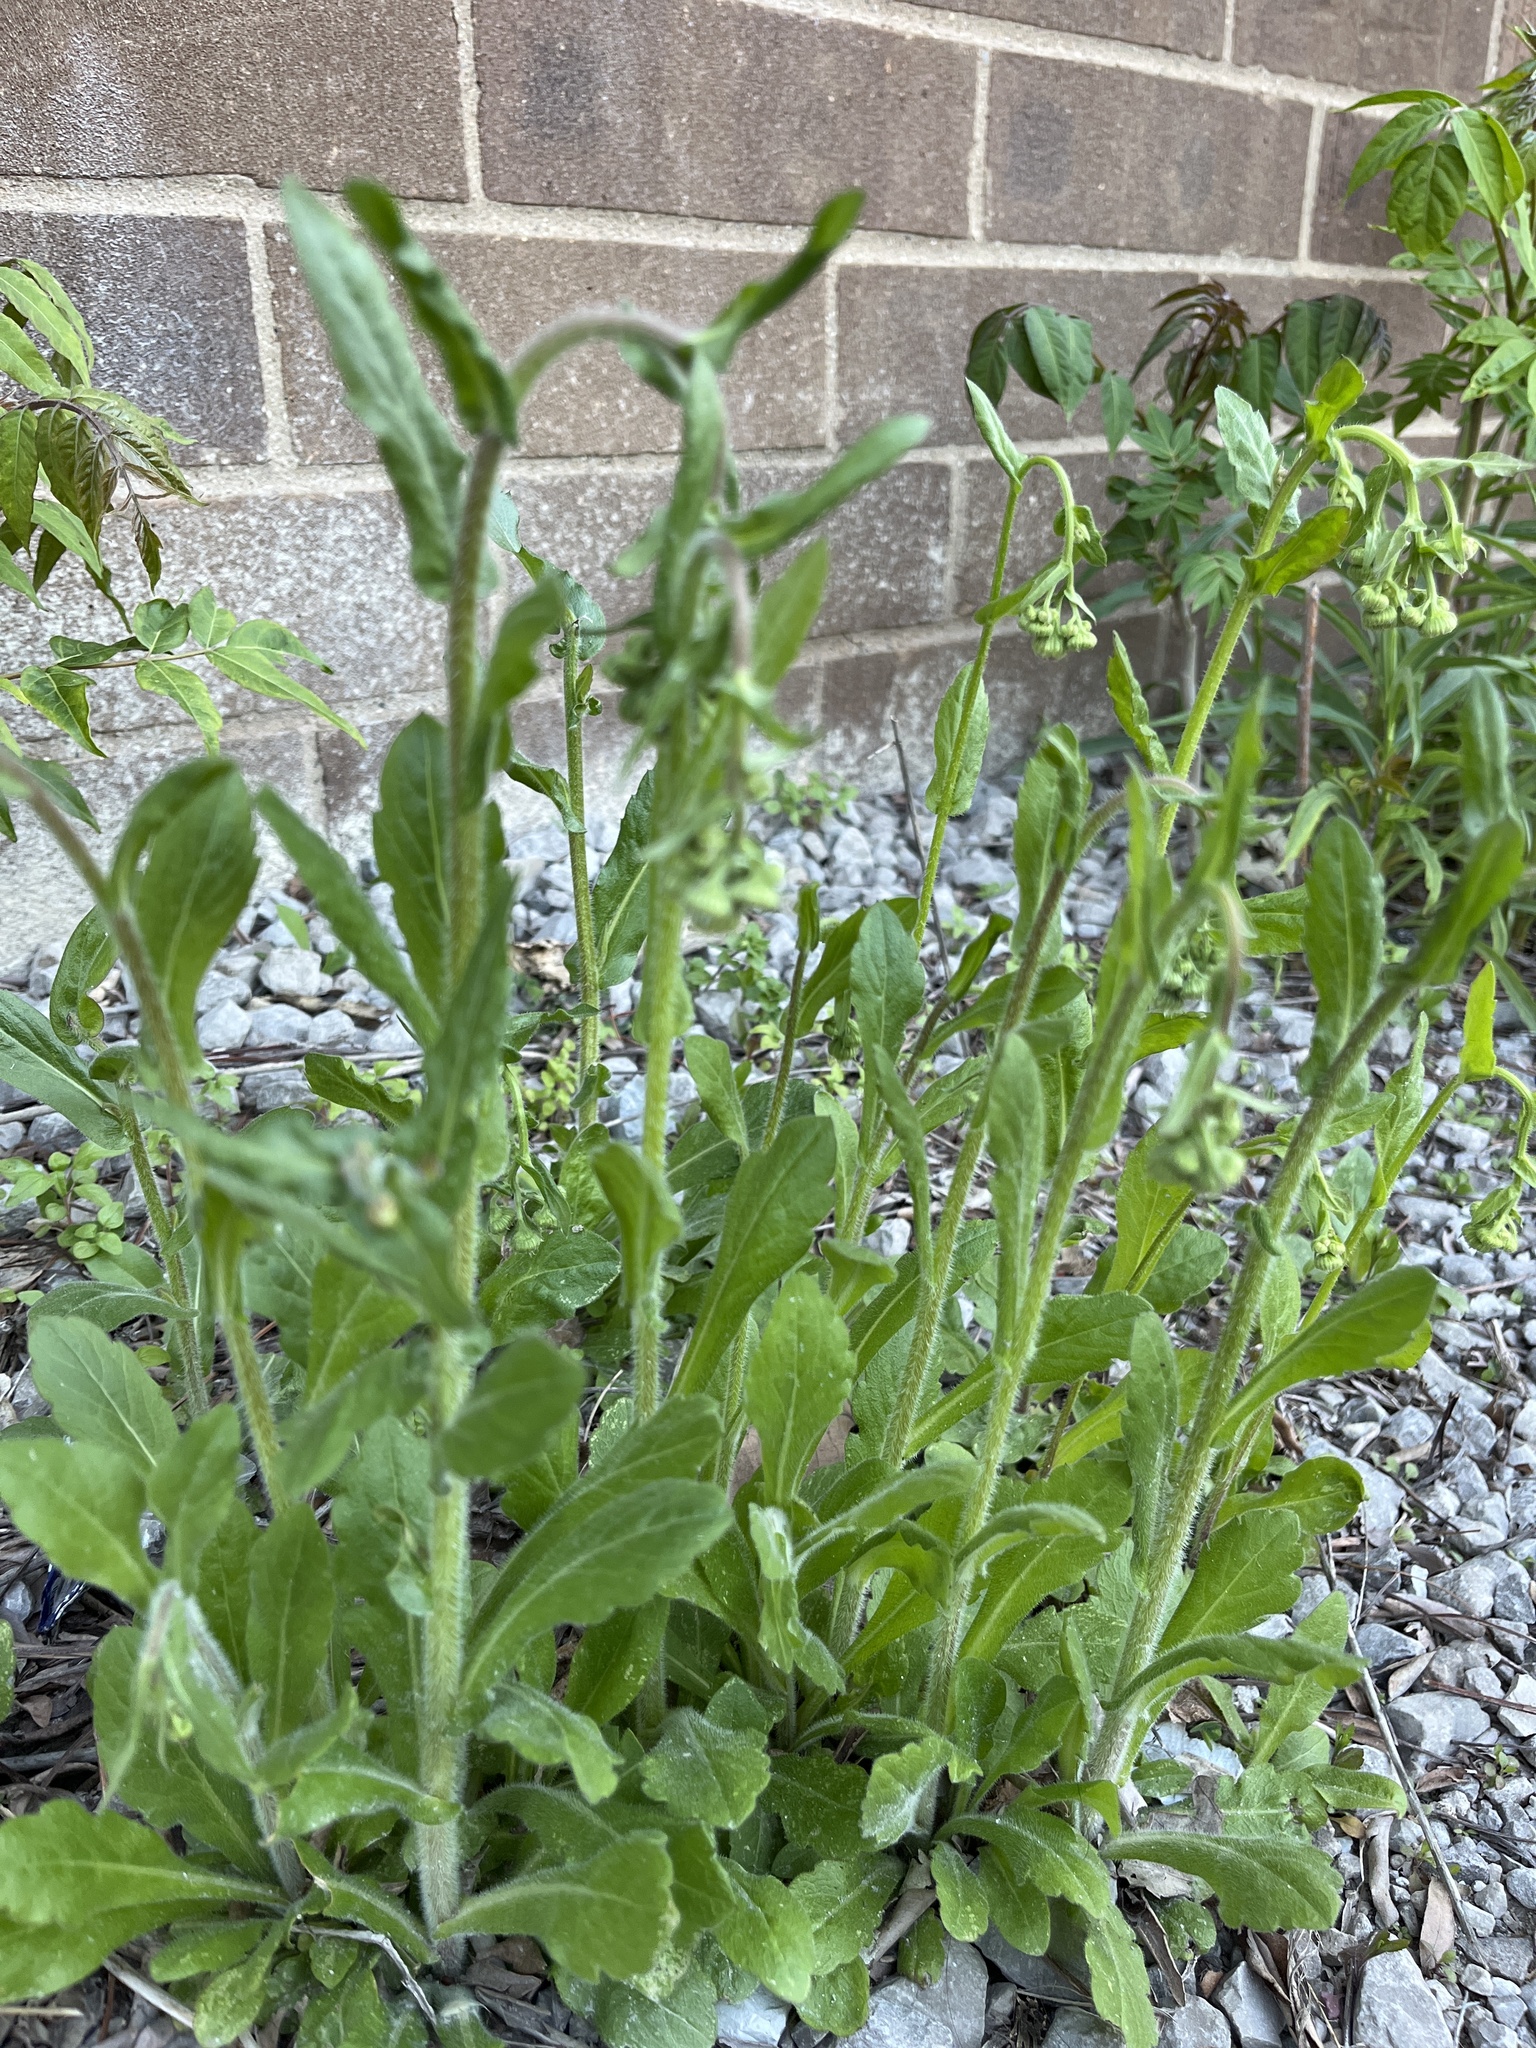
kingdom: Plantae
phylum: Tracheophyta
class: Magnoliopsida
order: Asterales
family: Asteraceae
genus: Erigeron
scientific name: Erigeron philadelphicus
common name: Robin's-plantain
